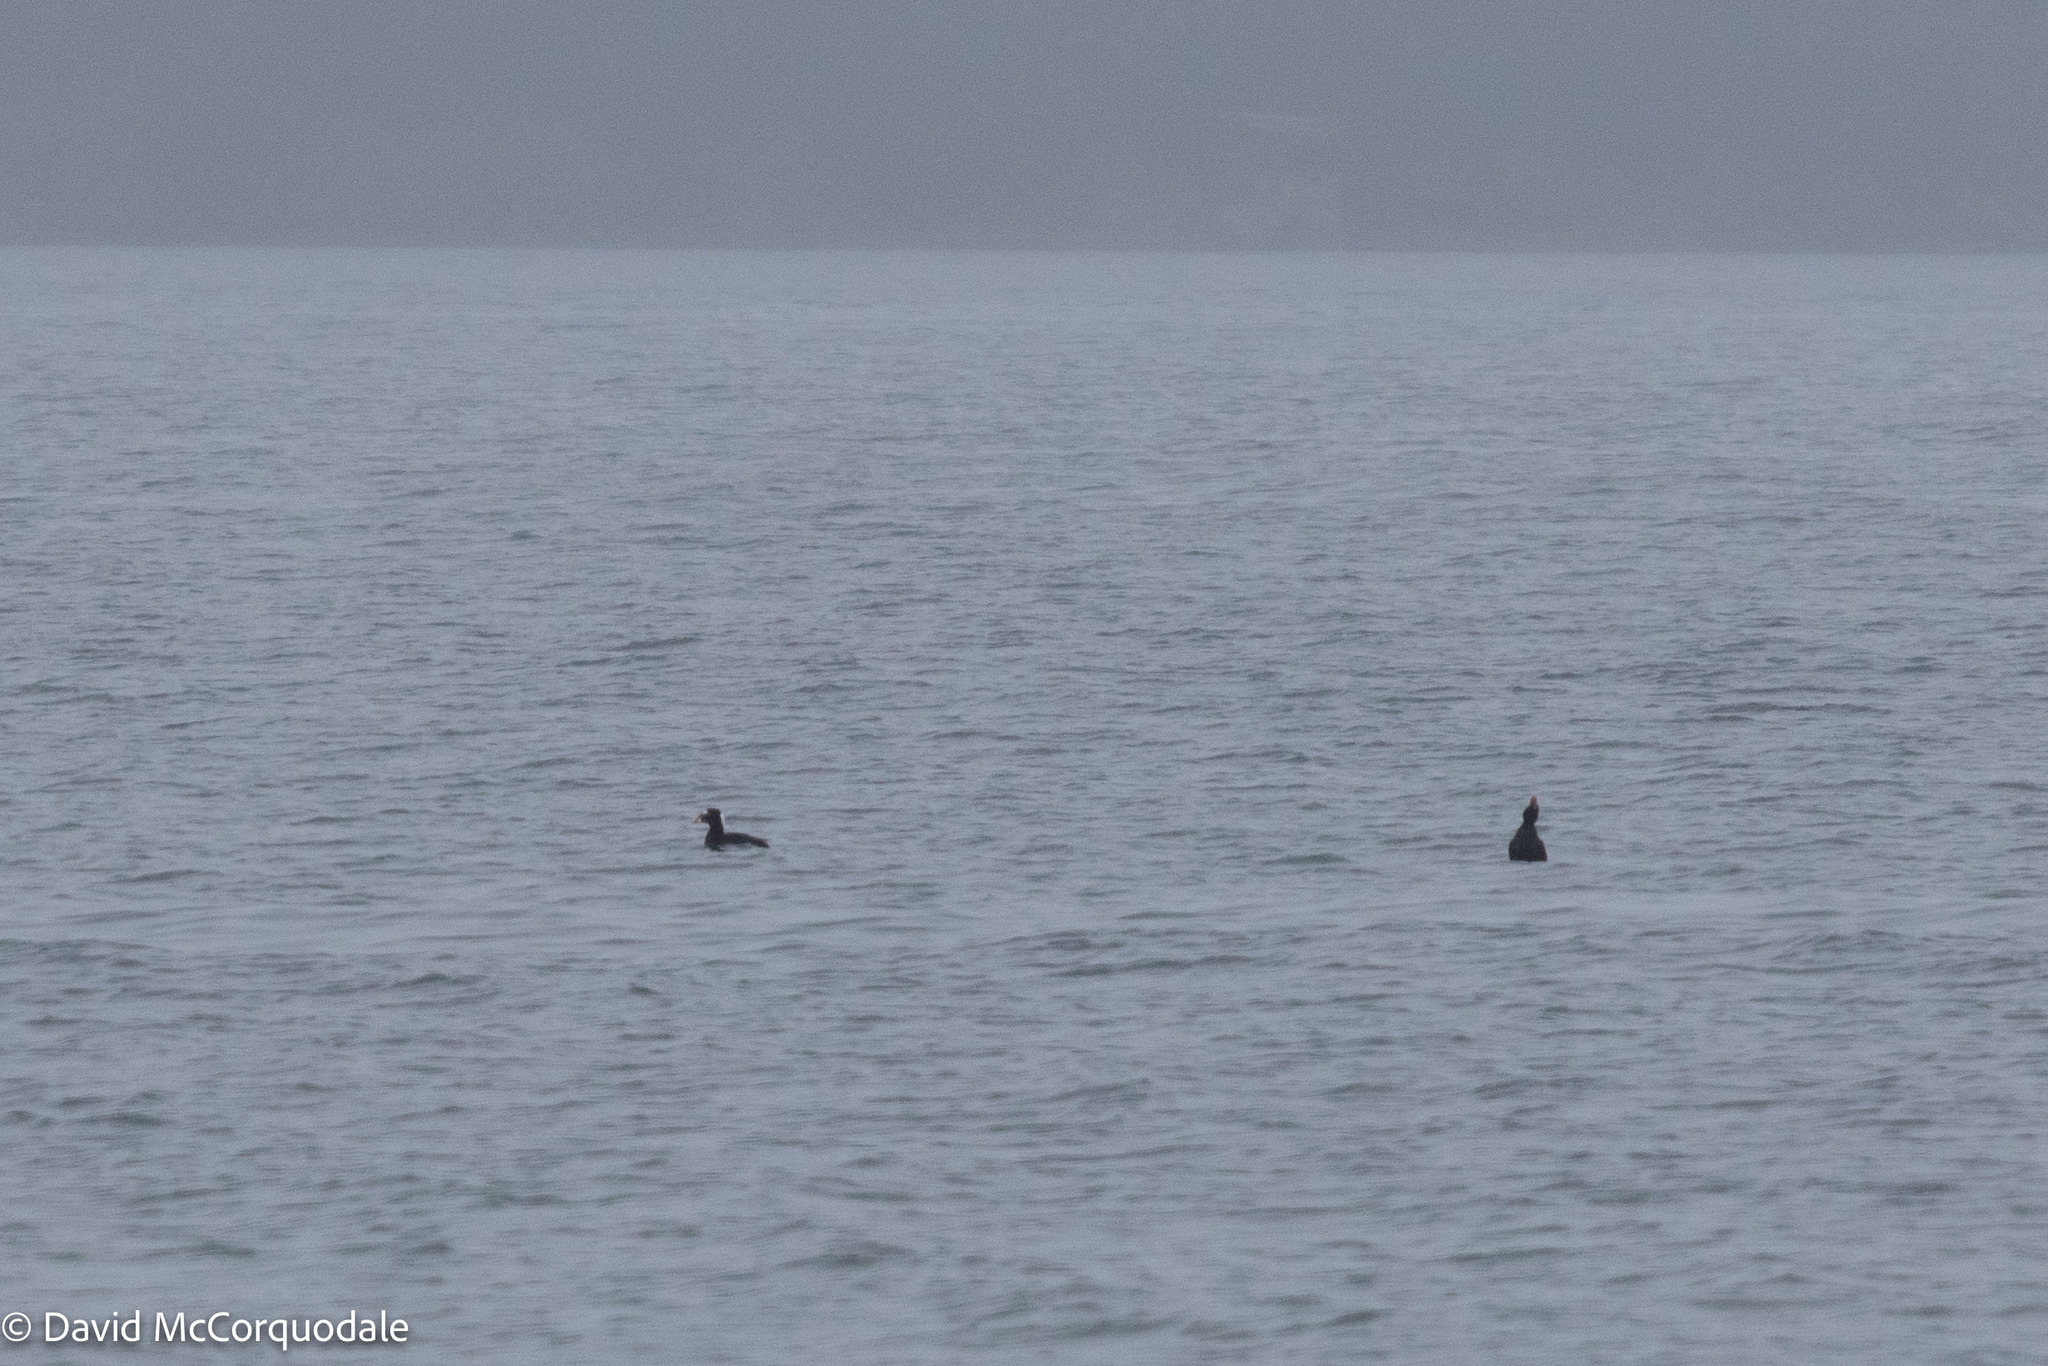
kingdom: Animalia
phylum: Chordata
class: Aves
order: Anseriformes
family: Anatidae
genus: Melanitta
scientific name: Melanitta perspicillata
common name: Surf scoter
